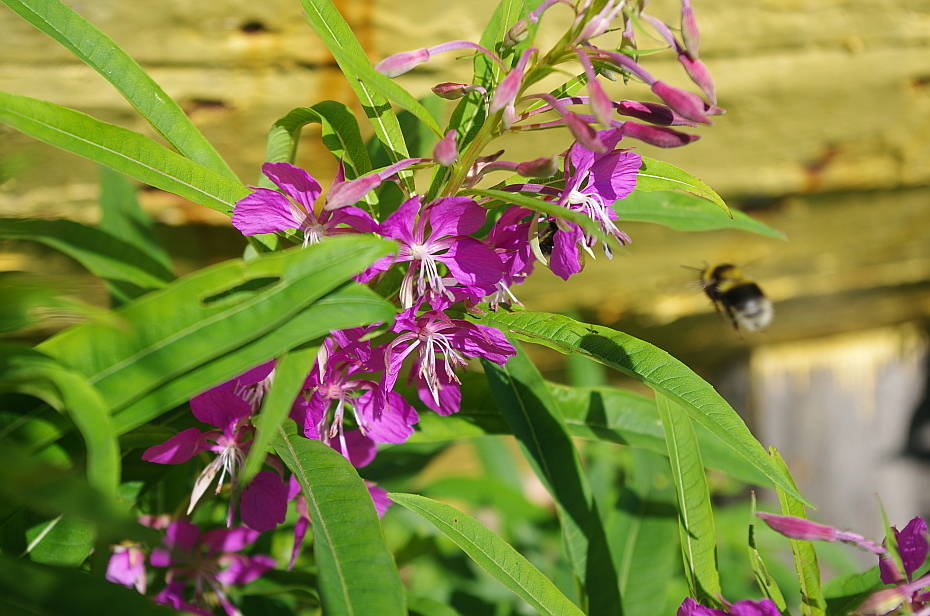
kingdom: Plantae
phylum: Tracheophyta
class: Magnoliopsida
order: Myrtales
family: Onagraceae
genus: Chamaenerion
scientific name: Chamaenerion angustifolium
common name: Fireweed
